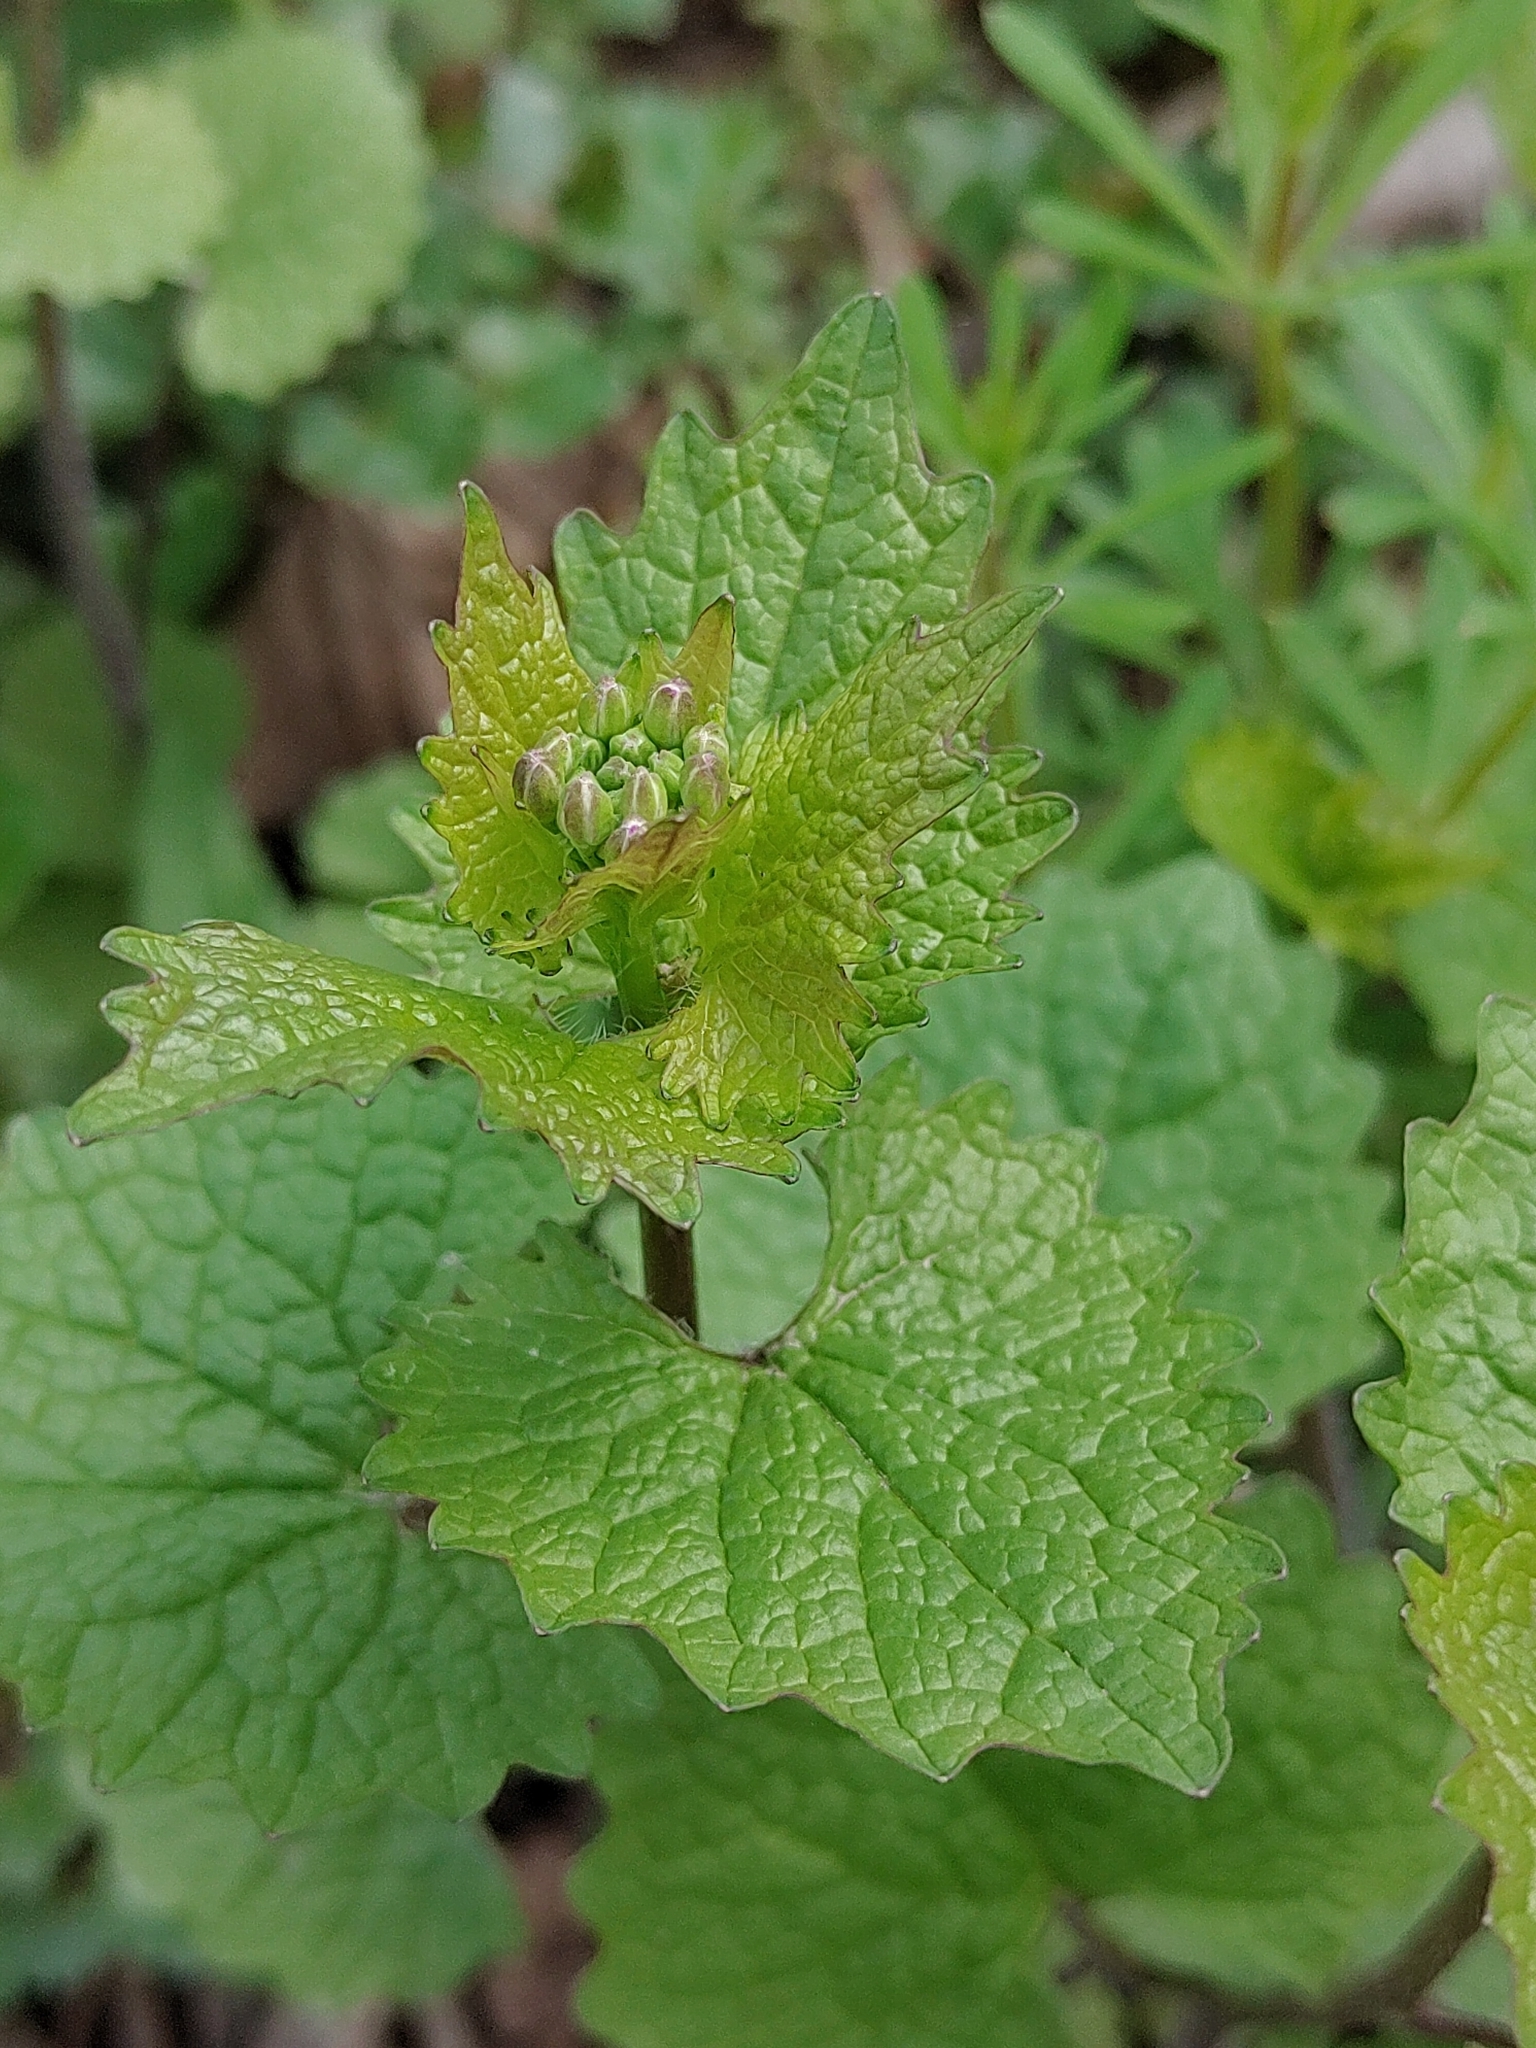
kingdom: Plantae
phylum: Tracheophyta
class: Magnoliopsida
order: Brassicales
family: Brassicaceae
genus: Alliaria
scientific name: Alliaria petiolata
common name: Garlic mustard
